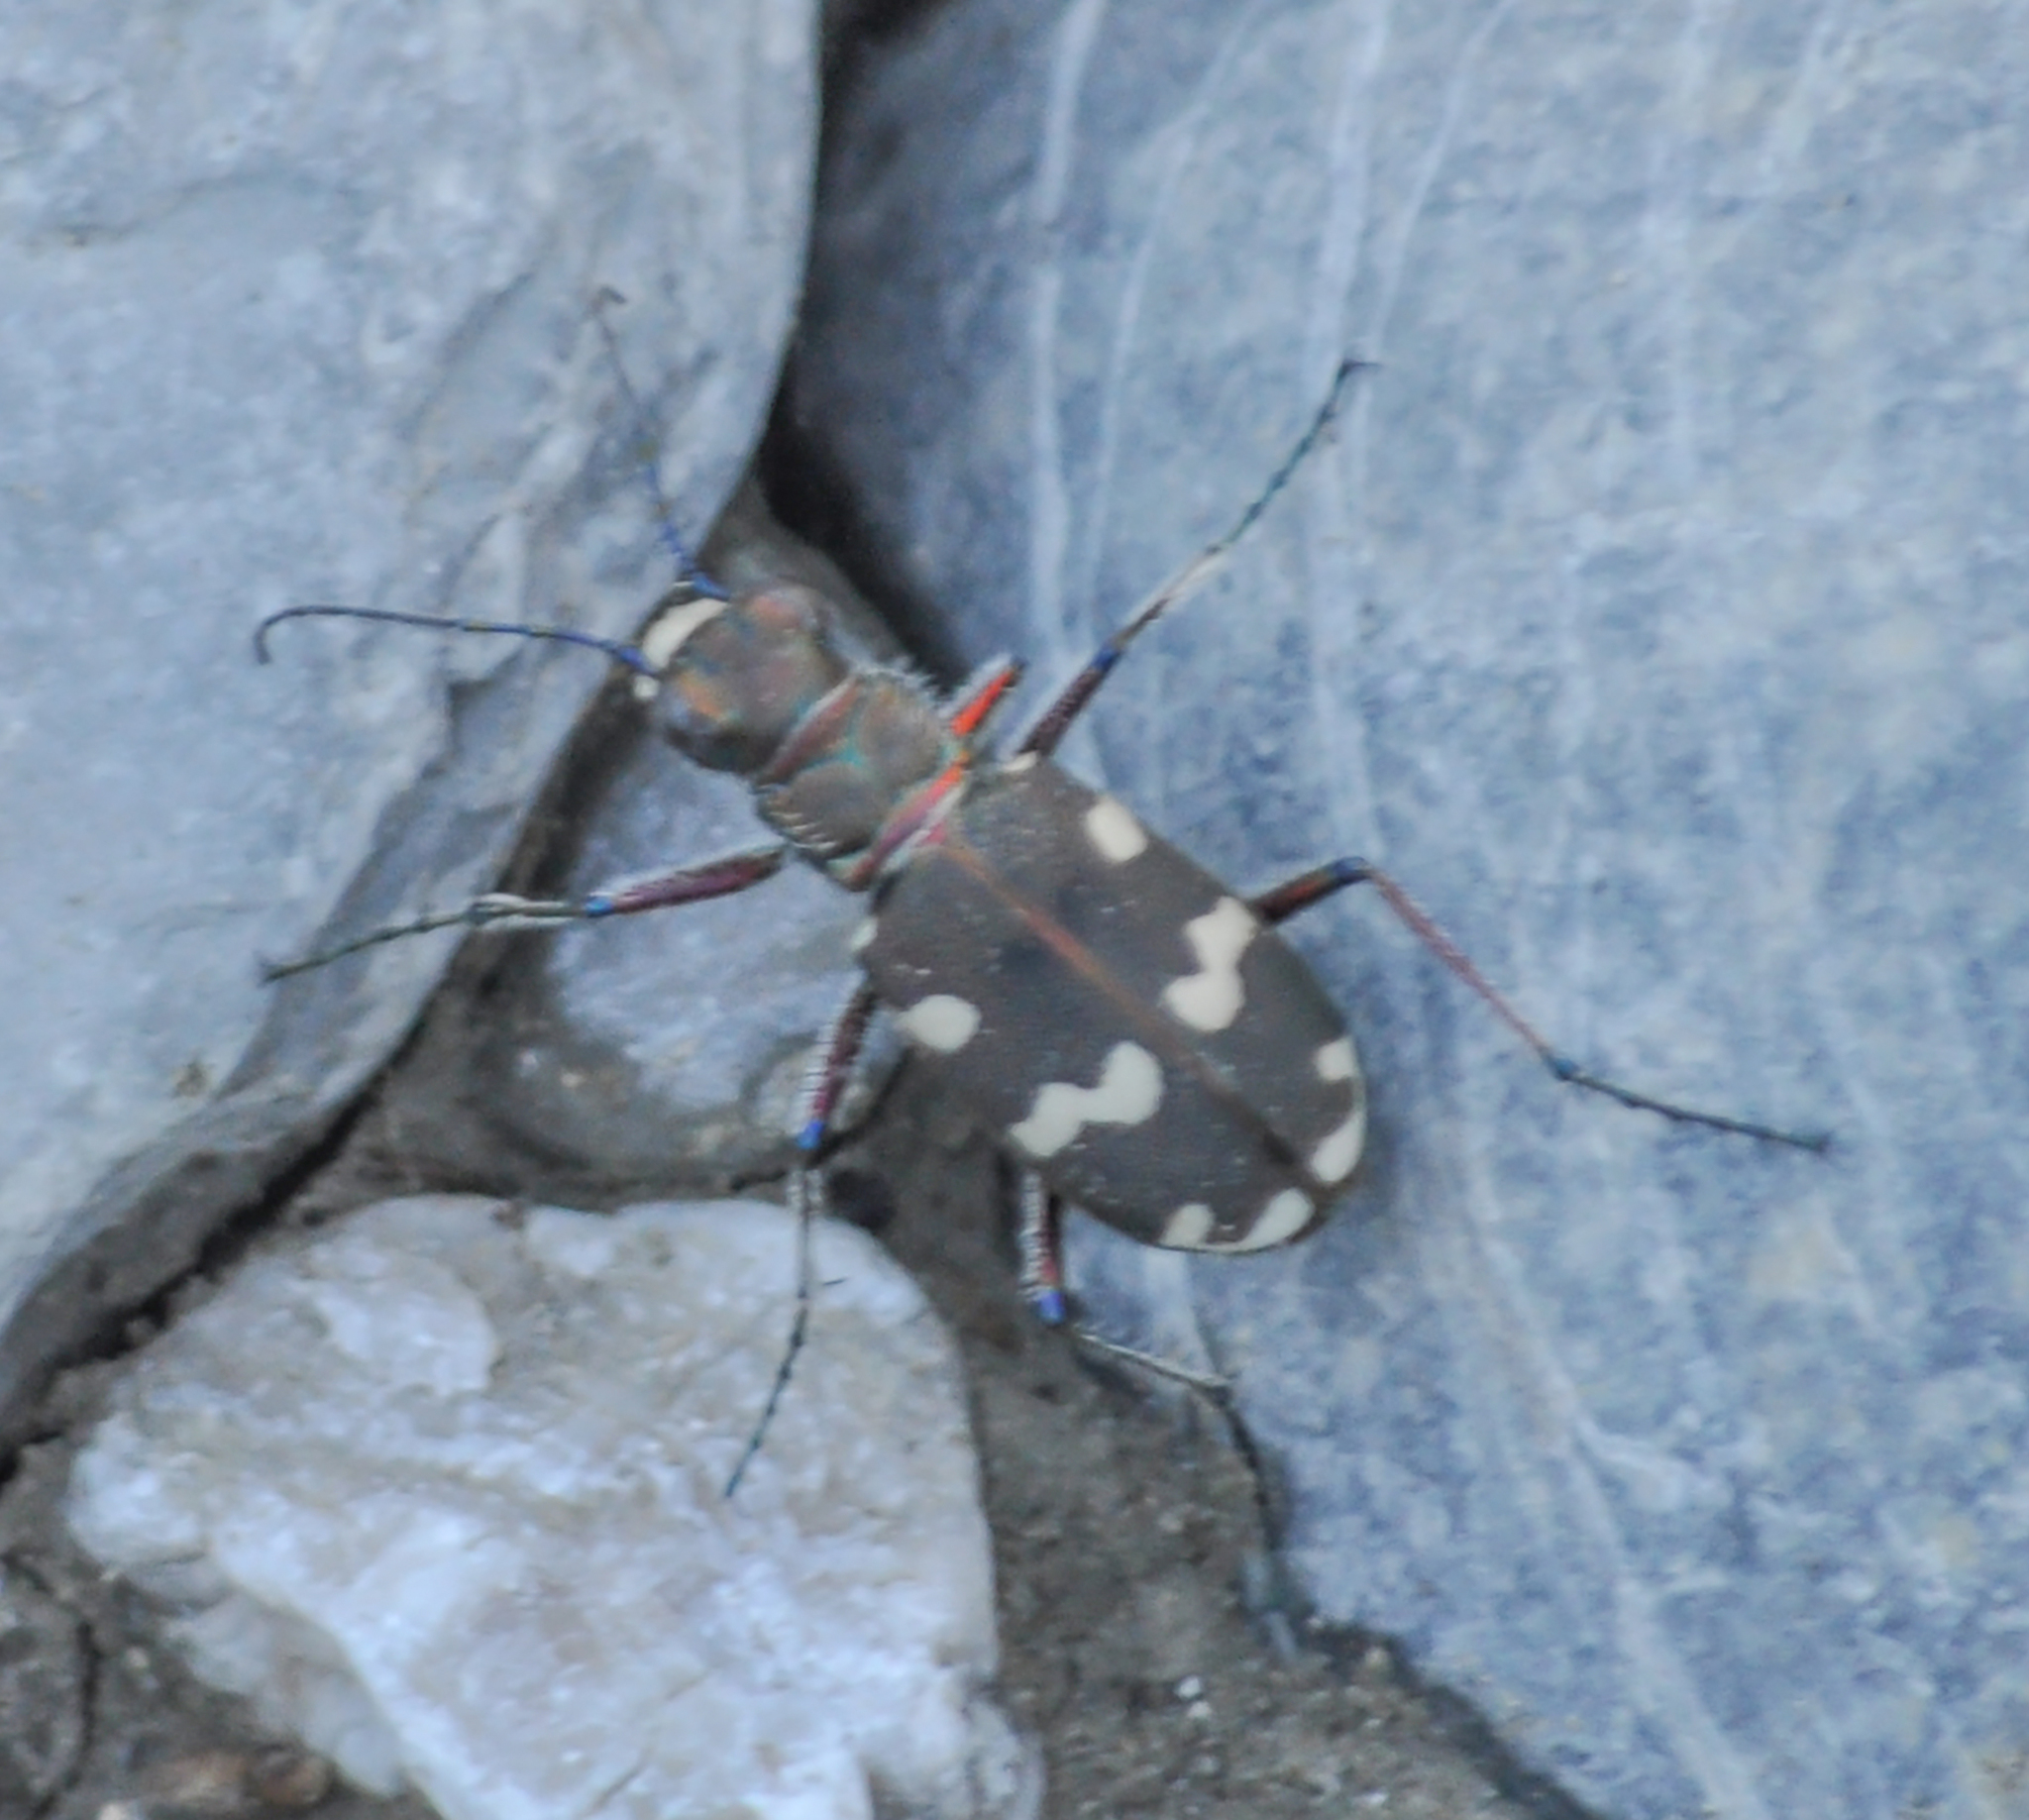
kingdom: Animalia
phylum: Arthropoda
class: Insecta
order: Coleoptera
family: Carabidae
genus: Cicindela
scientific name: Cicindela hybrida
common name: Northern dune tiger beetle
